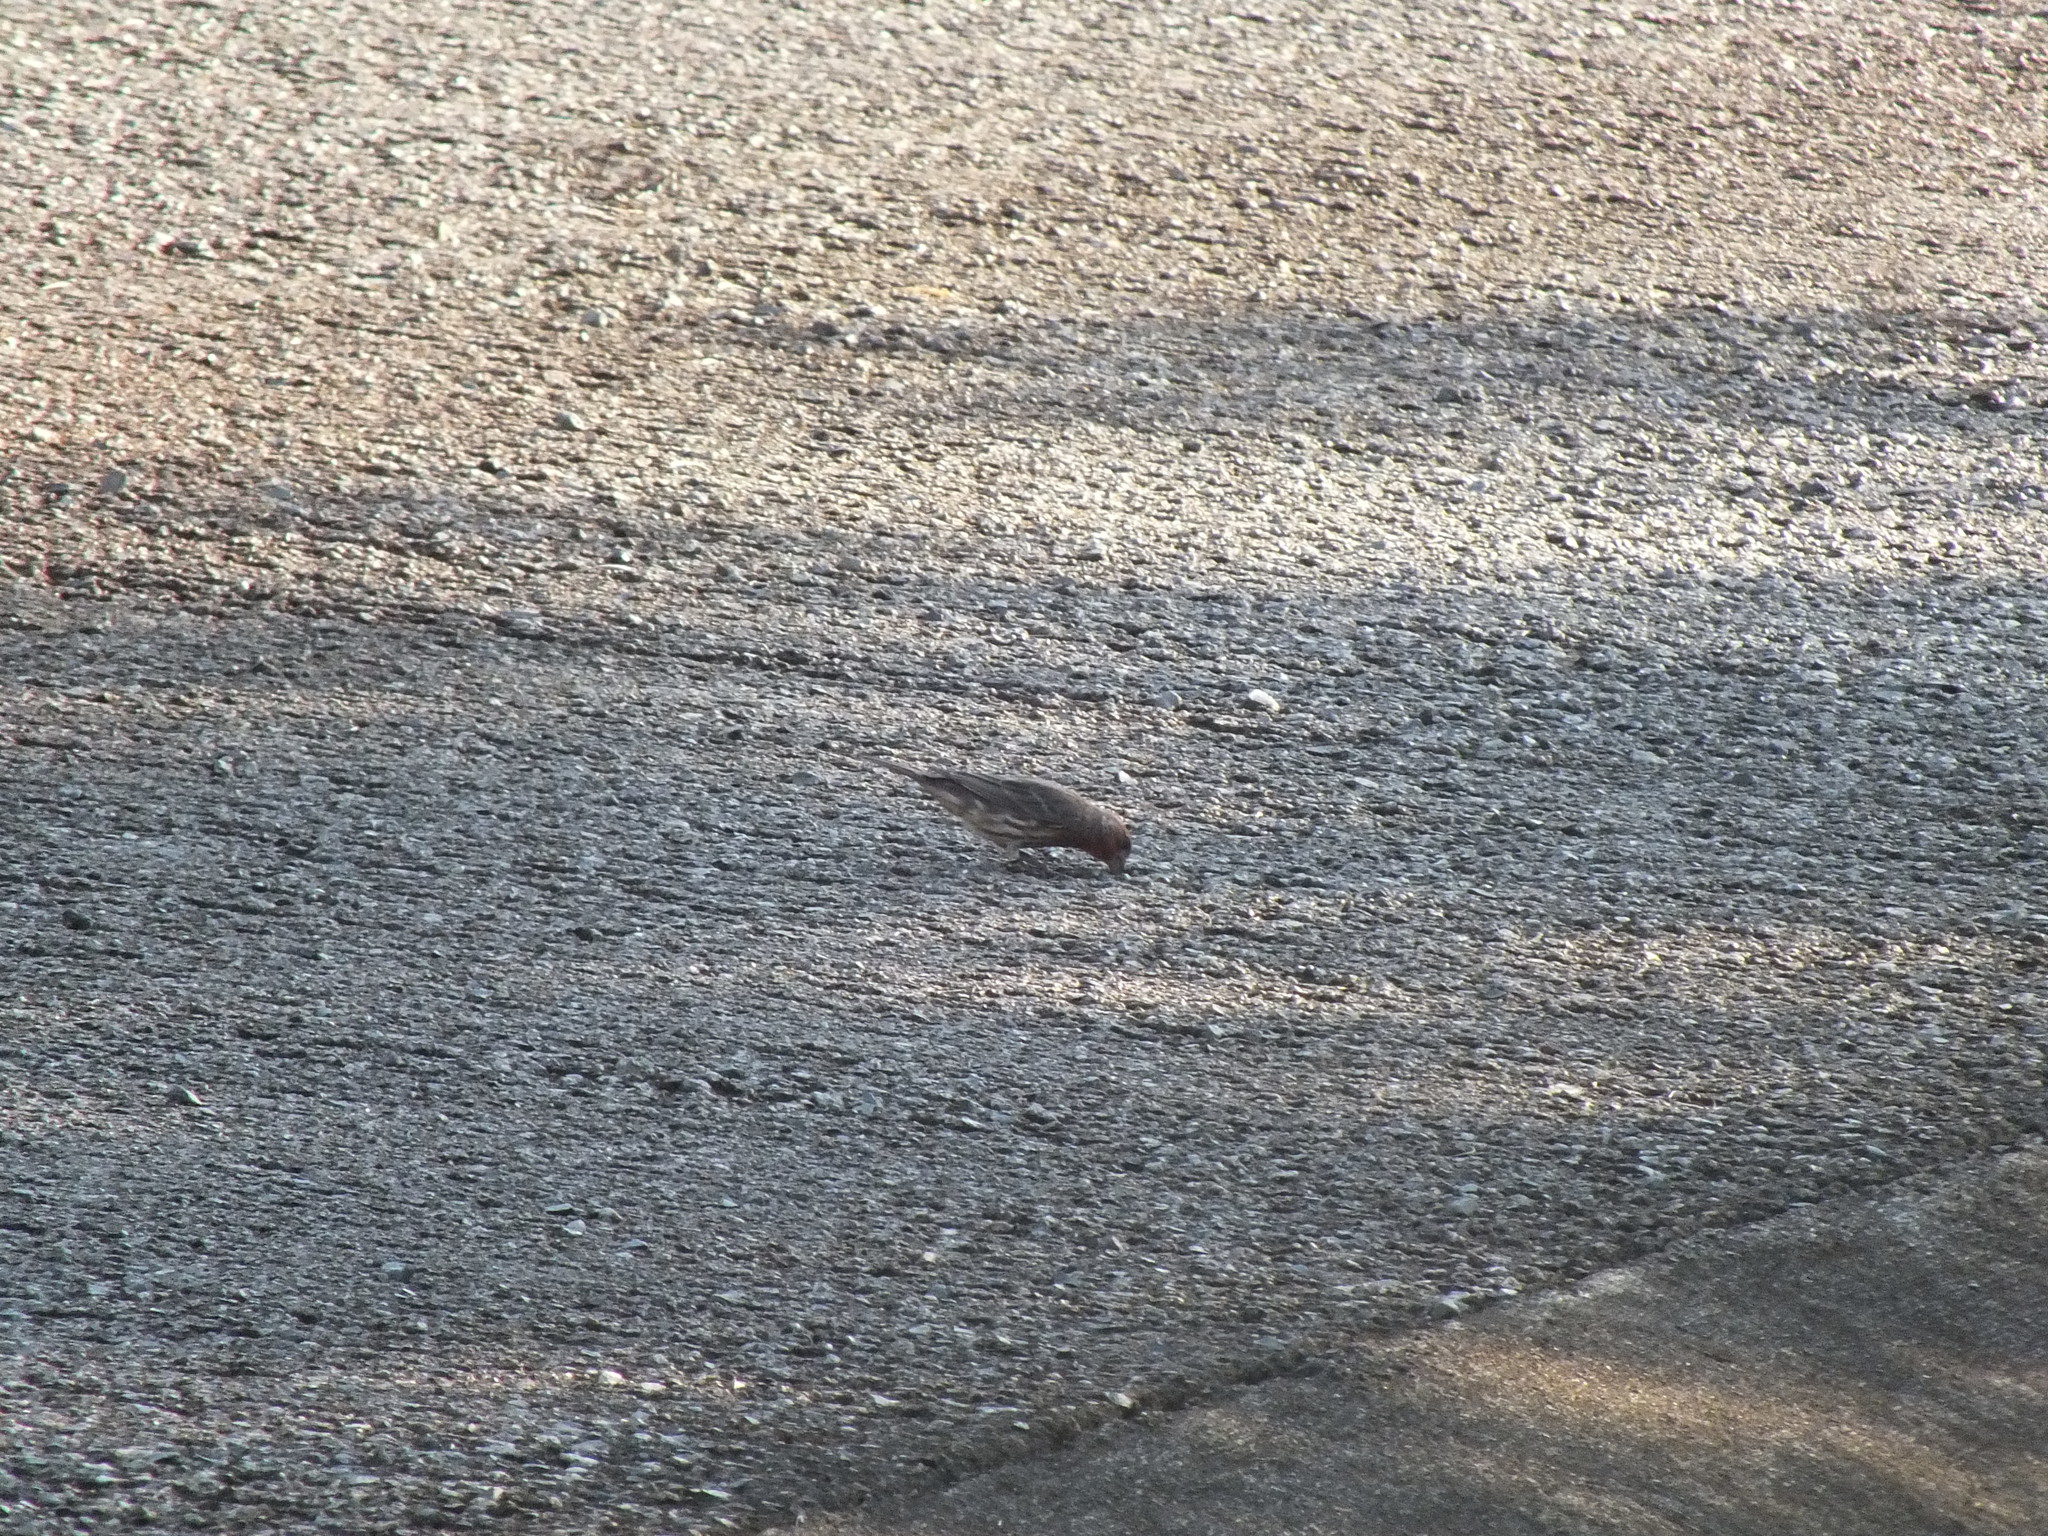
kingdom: Animalia
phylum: Chordata
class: Aves
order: Passeriformes
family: Fringillidae
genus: Haemorhous
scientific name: Haemorhous mexicanus
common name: House finch
